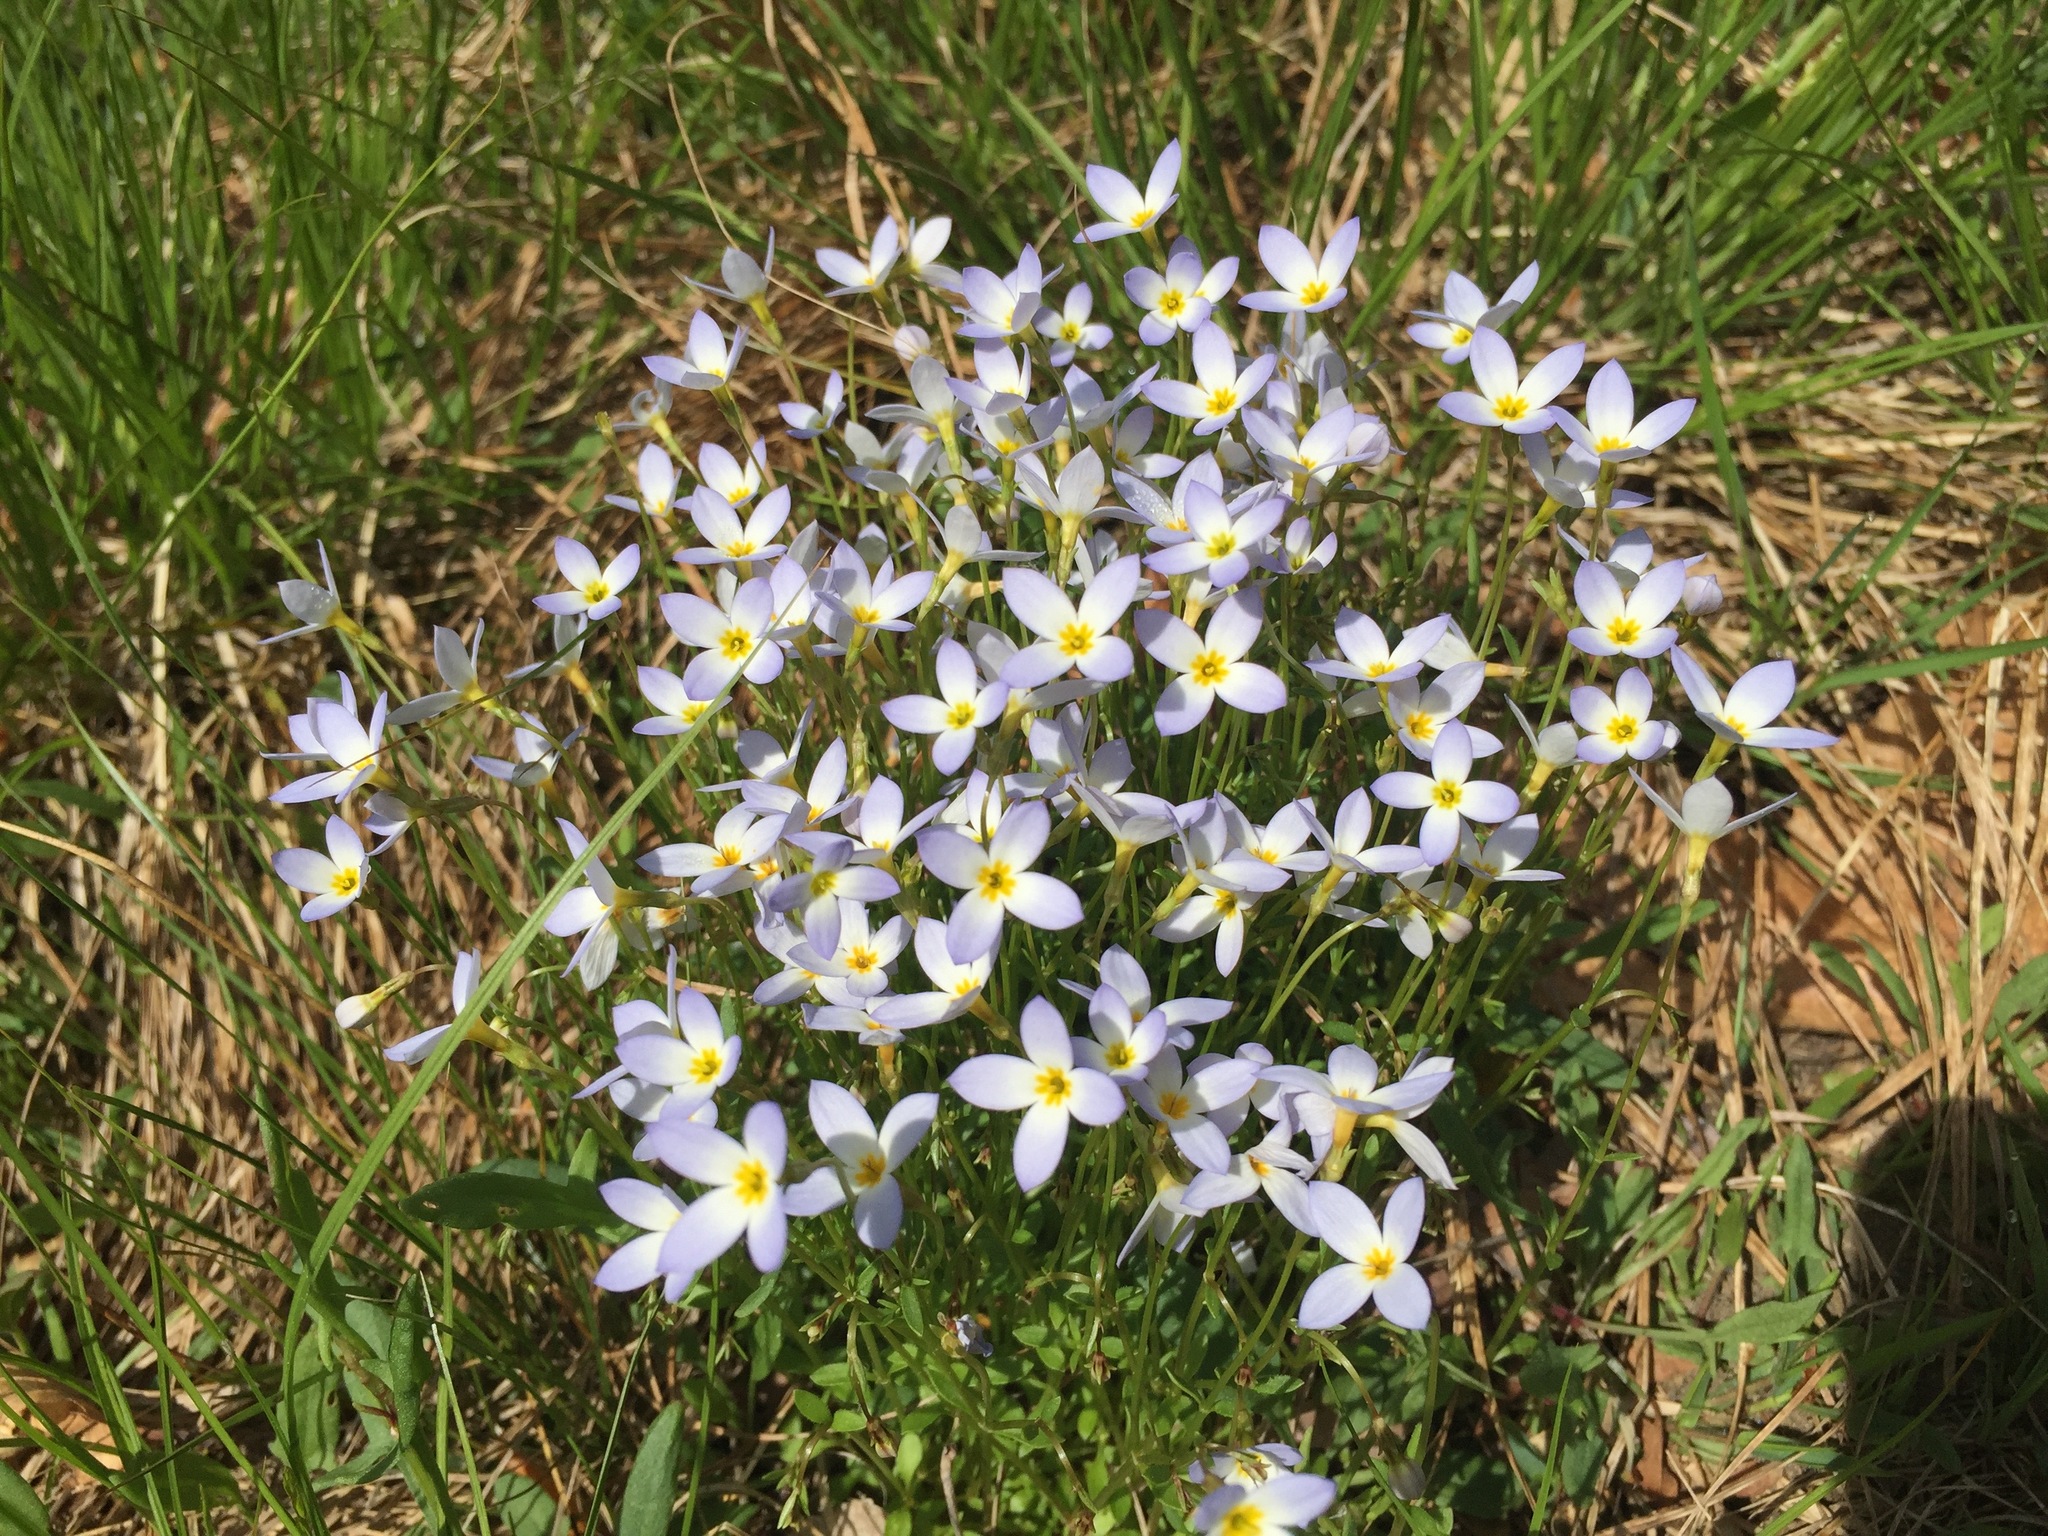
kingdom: Plantae
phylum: Tracheophyta
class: Magnoliopsida
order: Gentianales
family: Rubiaceae
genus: Houstonia
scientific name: Houstonia caerulea
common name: Bluets
